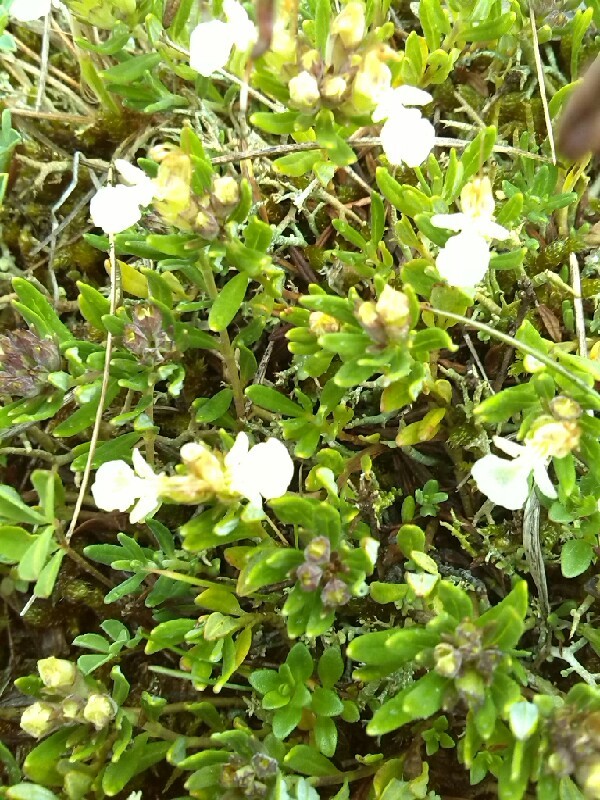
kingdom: Plantae
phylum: Tracheophyta
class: Magnoliopsida
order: Lamiales
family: Lamiaceae
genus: Teucrium
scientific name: Teucrium montanum
